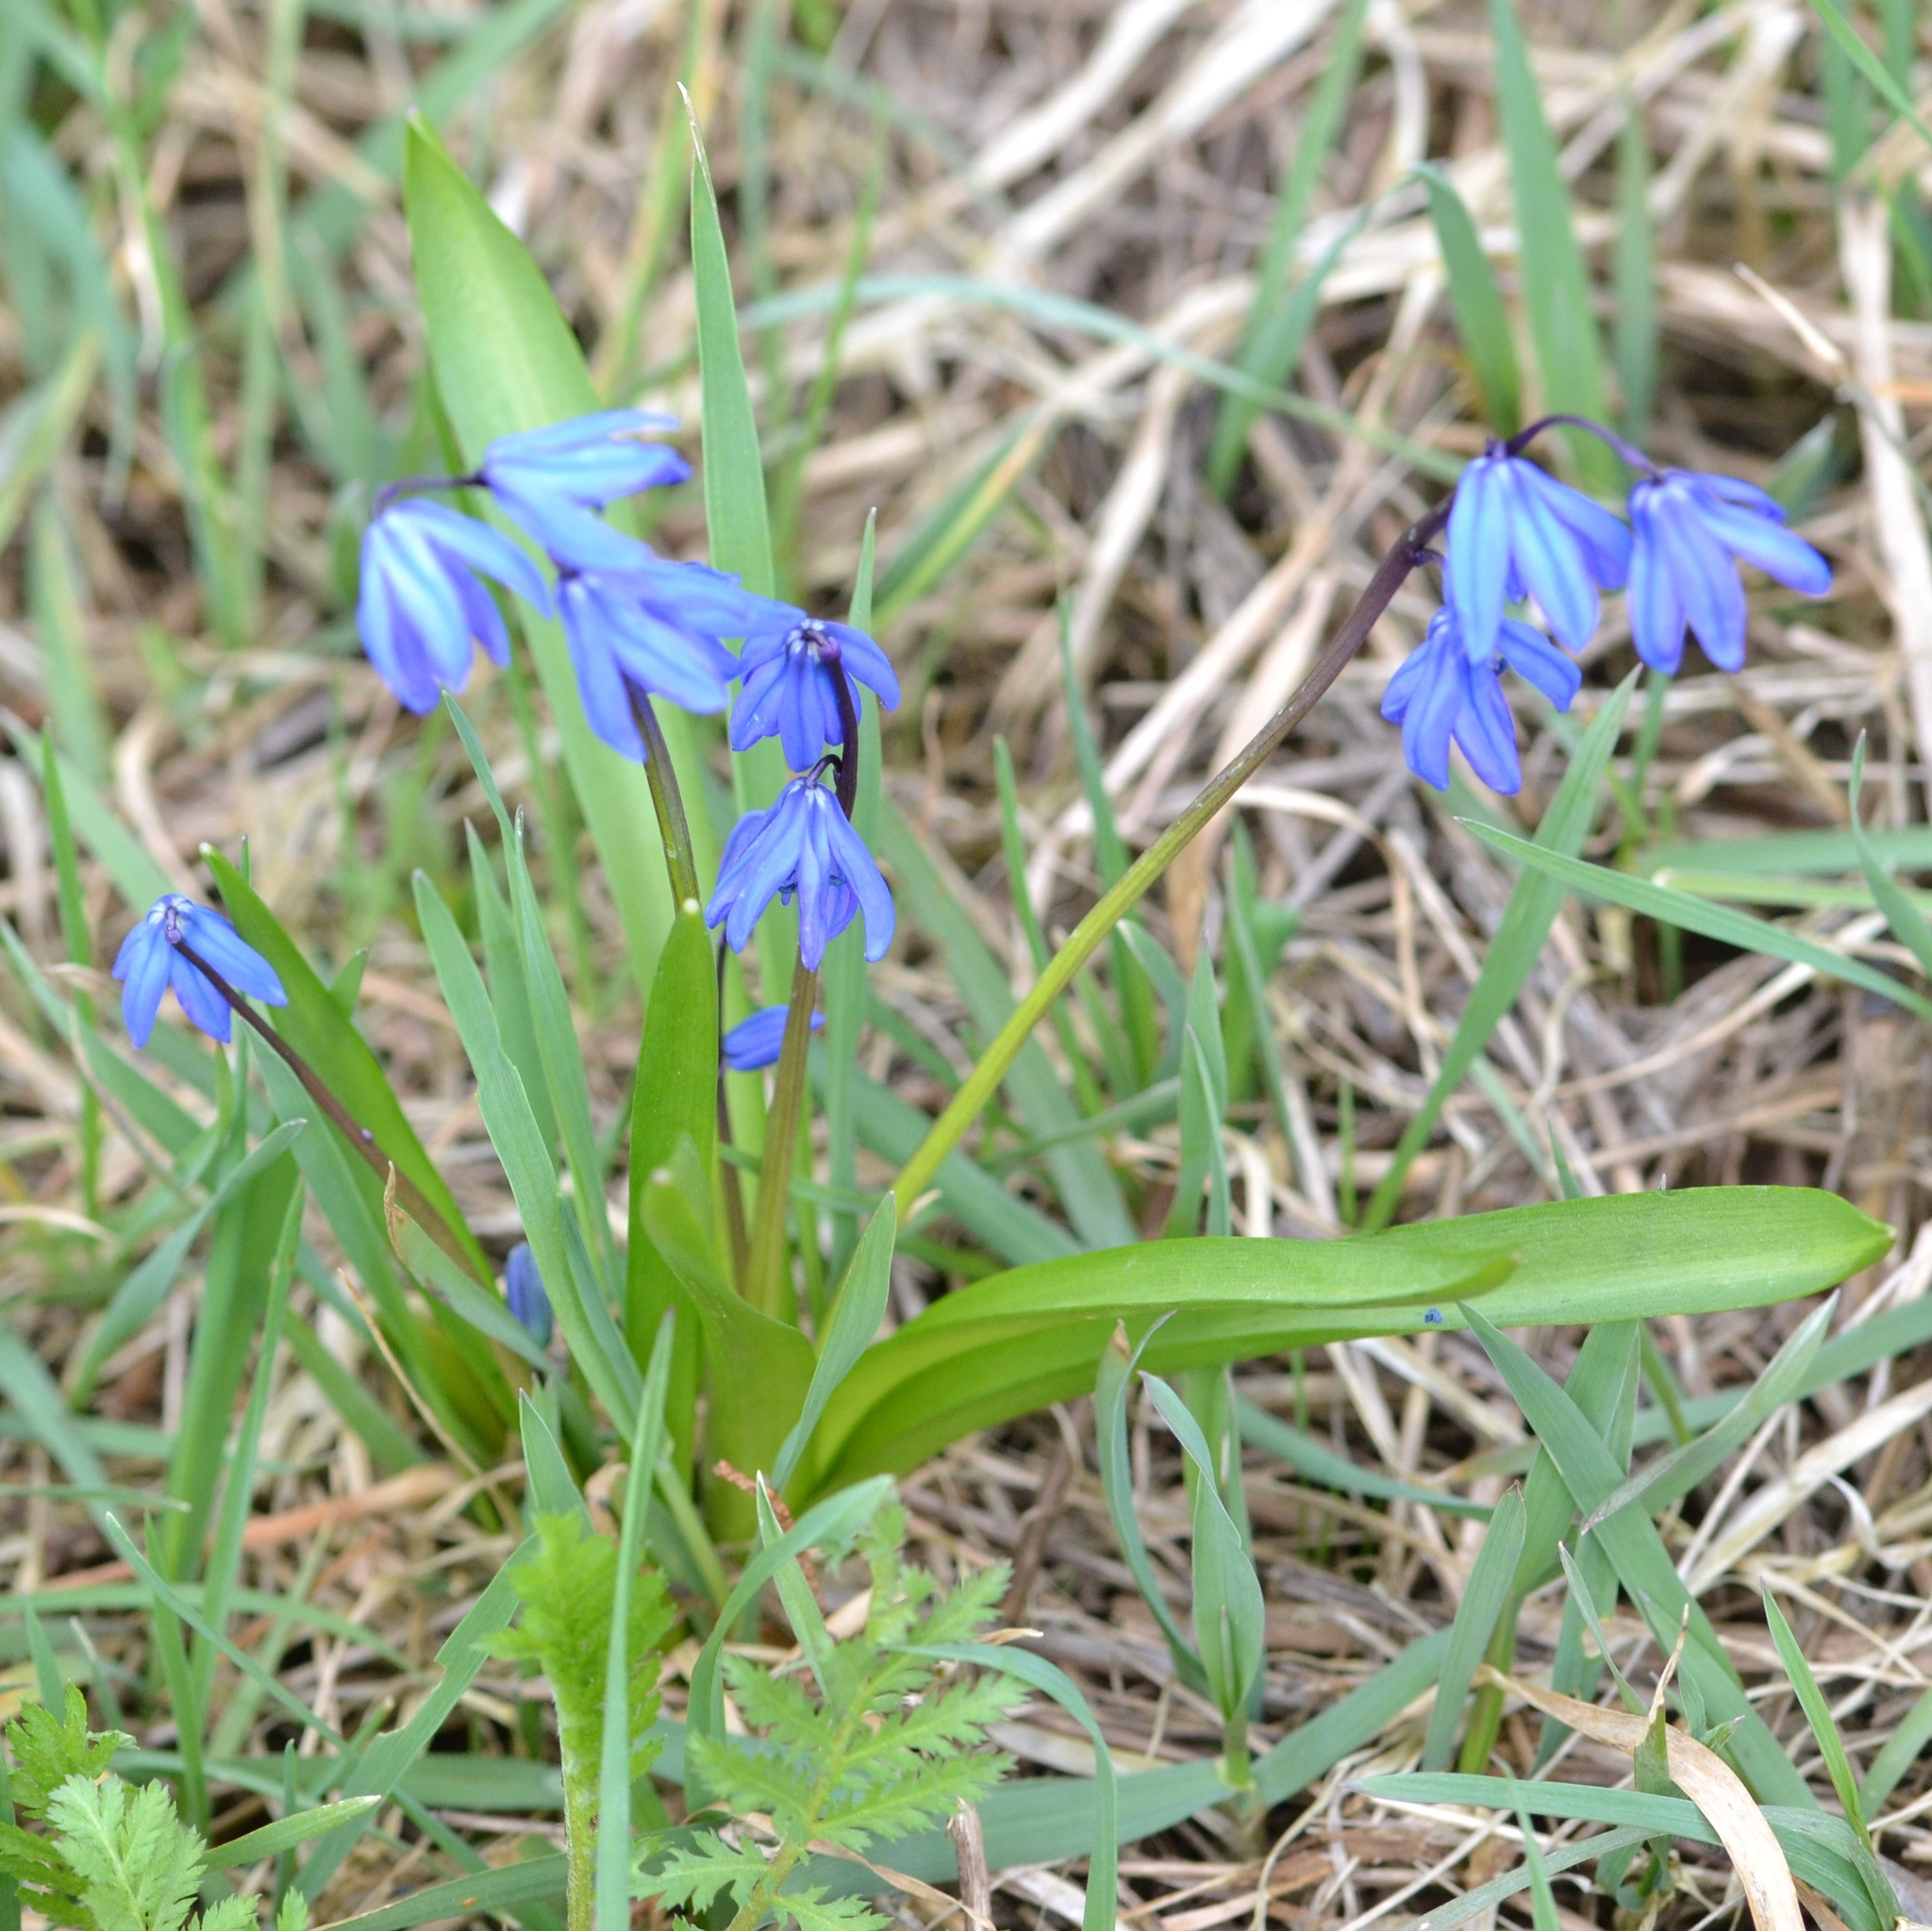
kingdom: Plantae
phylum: Tracheophyta
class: Liliopsida
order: Asparagales
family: Asparagaceae
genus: Scilla
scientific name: Scilla siberica
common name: Siberian squill
